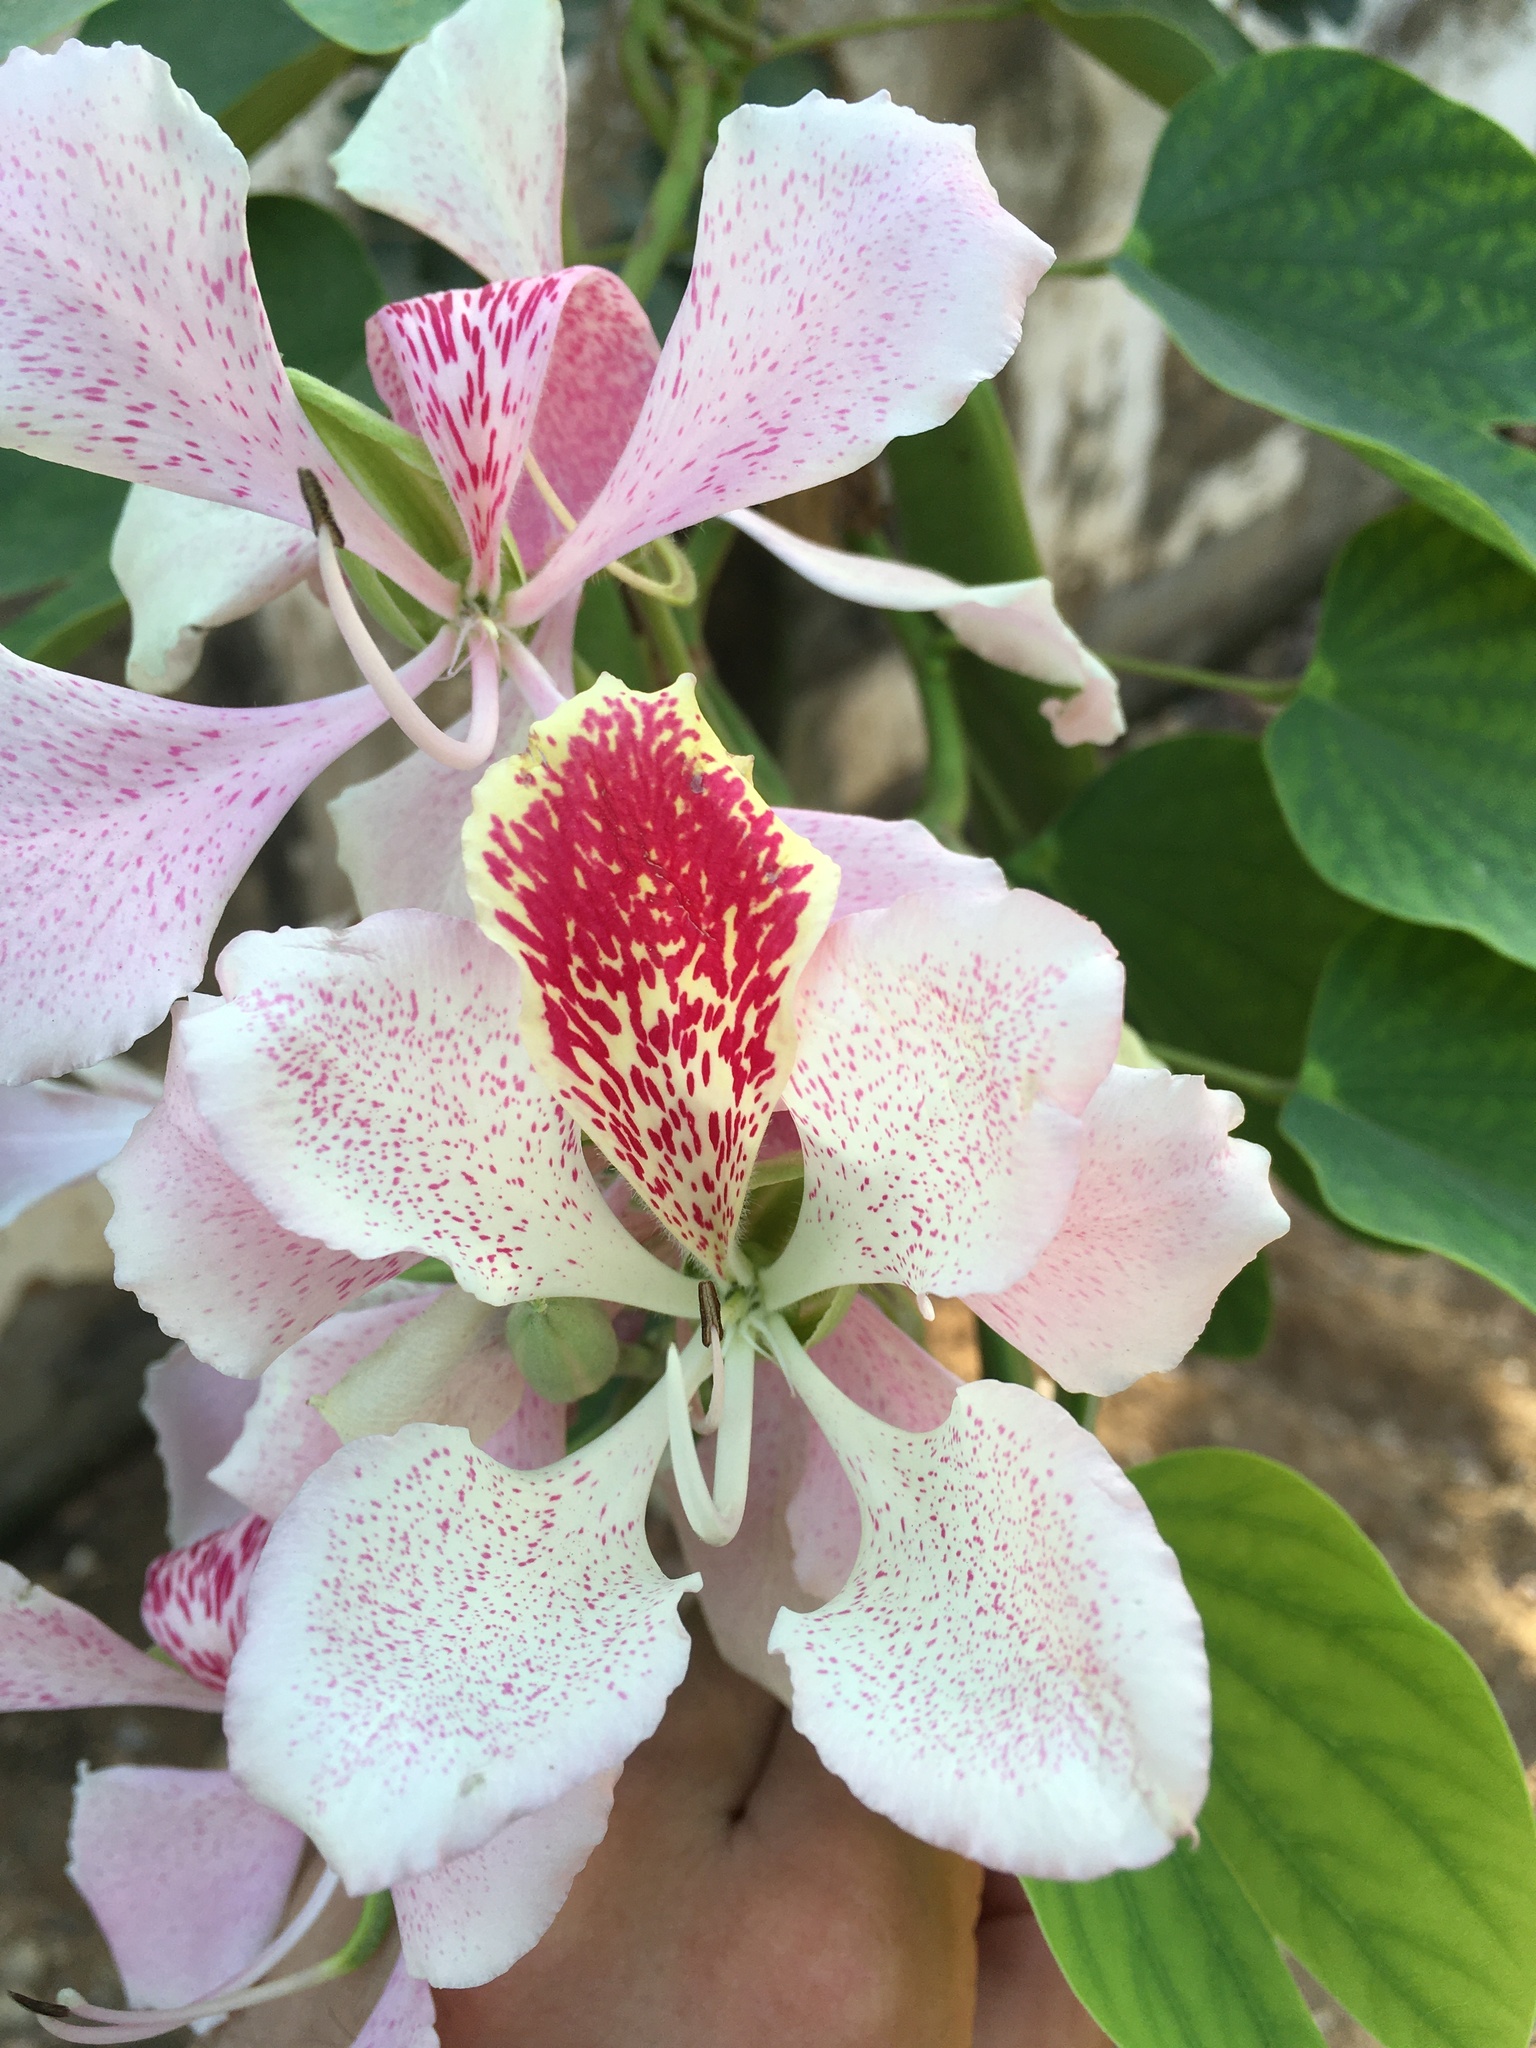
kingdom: Plantae
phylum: Tracheophyta
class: Magnoliopsida
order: Fabales
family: Fabaceae
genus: Bauhinia
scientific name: Bauhinia monandra
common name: Napoleon's plume
